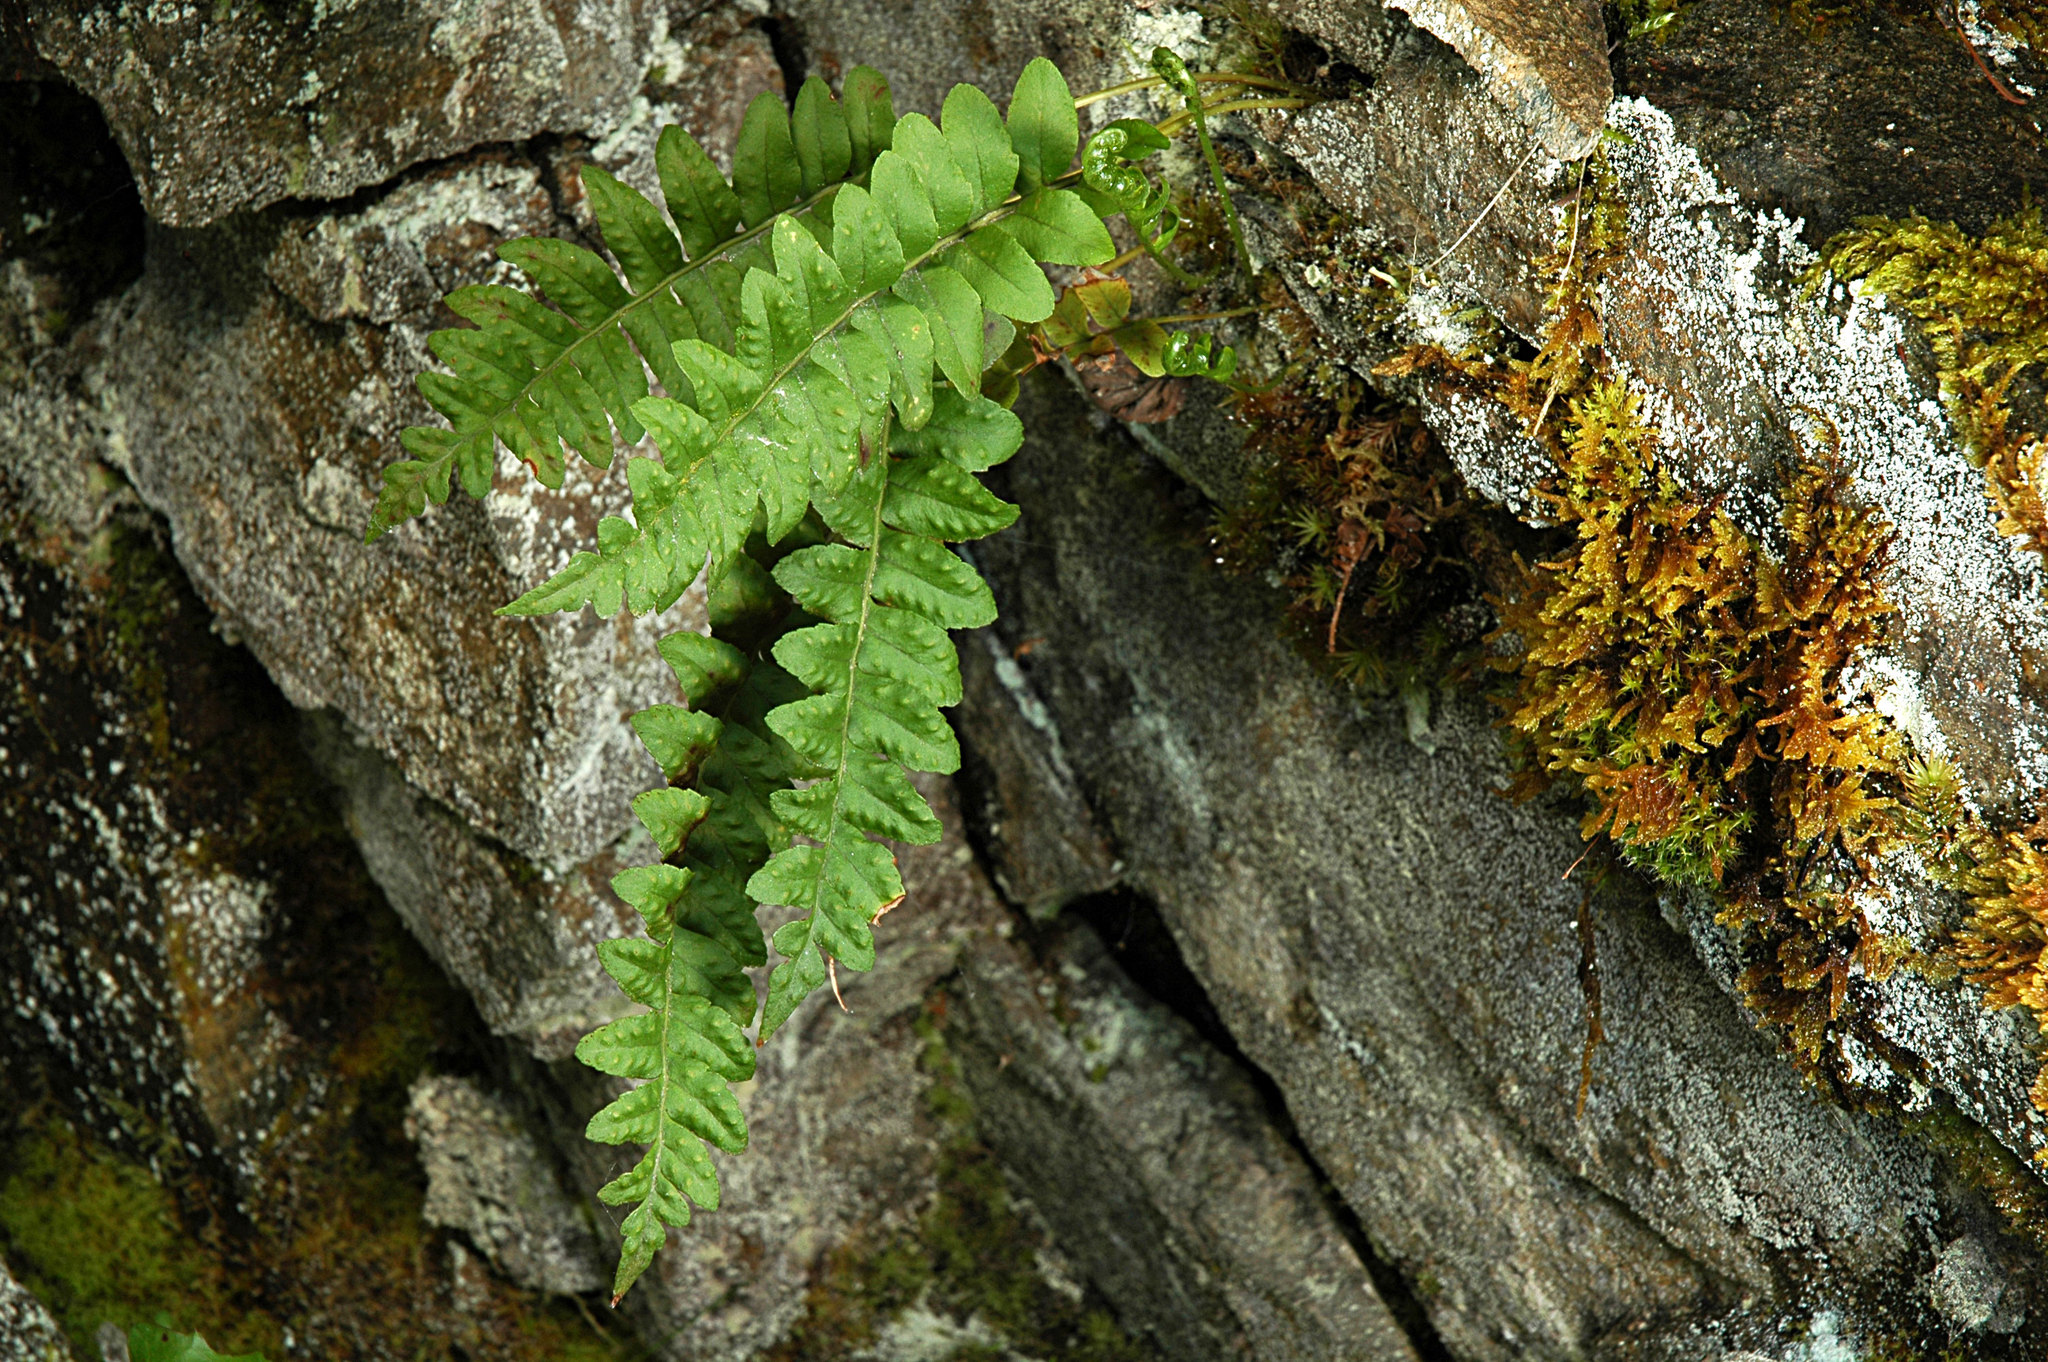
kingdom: Plantae
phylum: Tracheophyta
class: Polypodiopsida
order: Polypodiales
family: Polypodiaceae
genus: Polypodium
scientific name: Polypodium hesperium
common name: Western polypody
